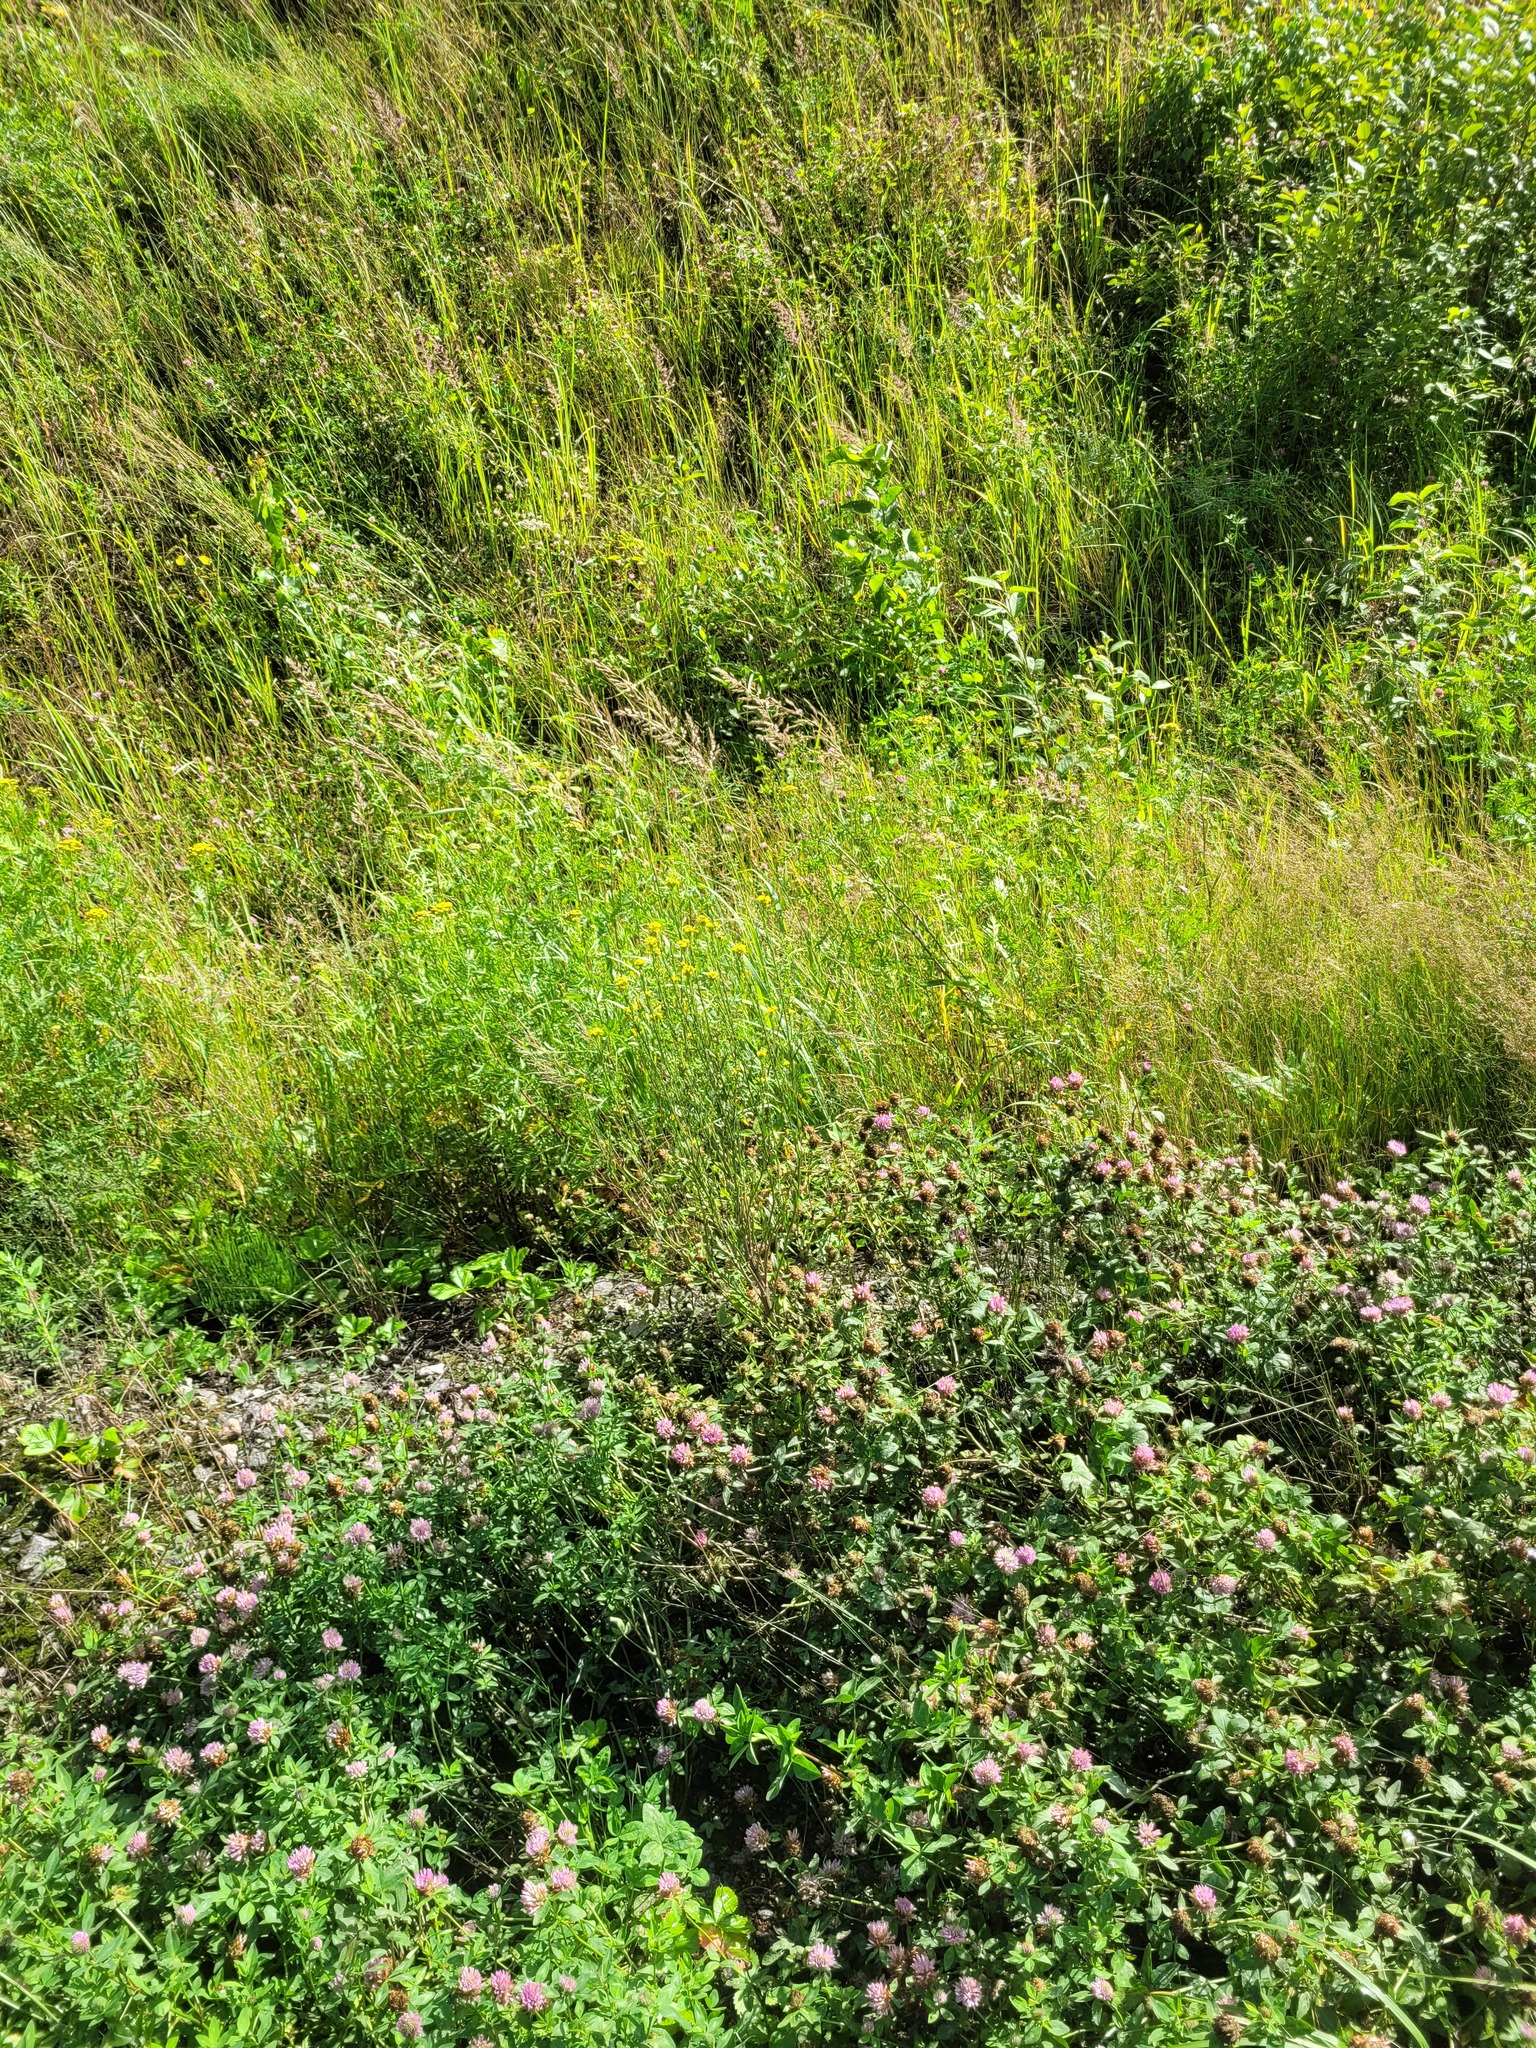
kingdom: Plantae
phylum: Tracheophyta
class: Magnoliopsida
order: Brassicales
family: Brassicaceae
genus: Erysimum
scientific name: Erysimum hieraciifolium
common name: European wallflower
